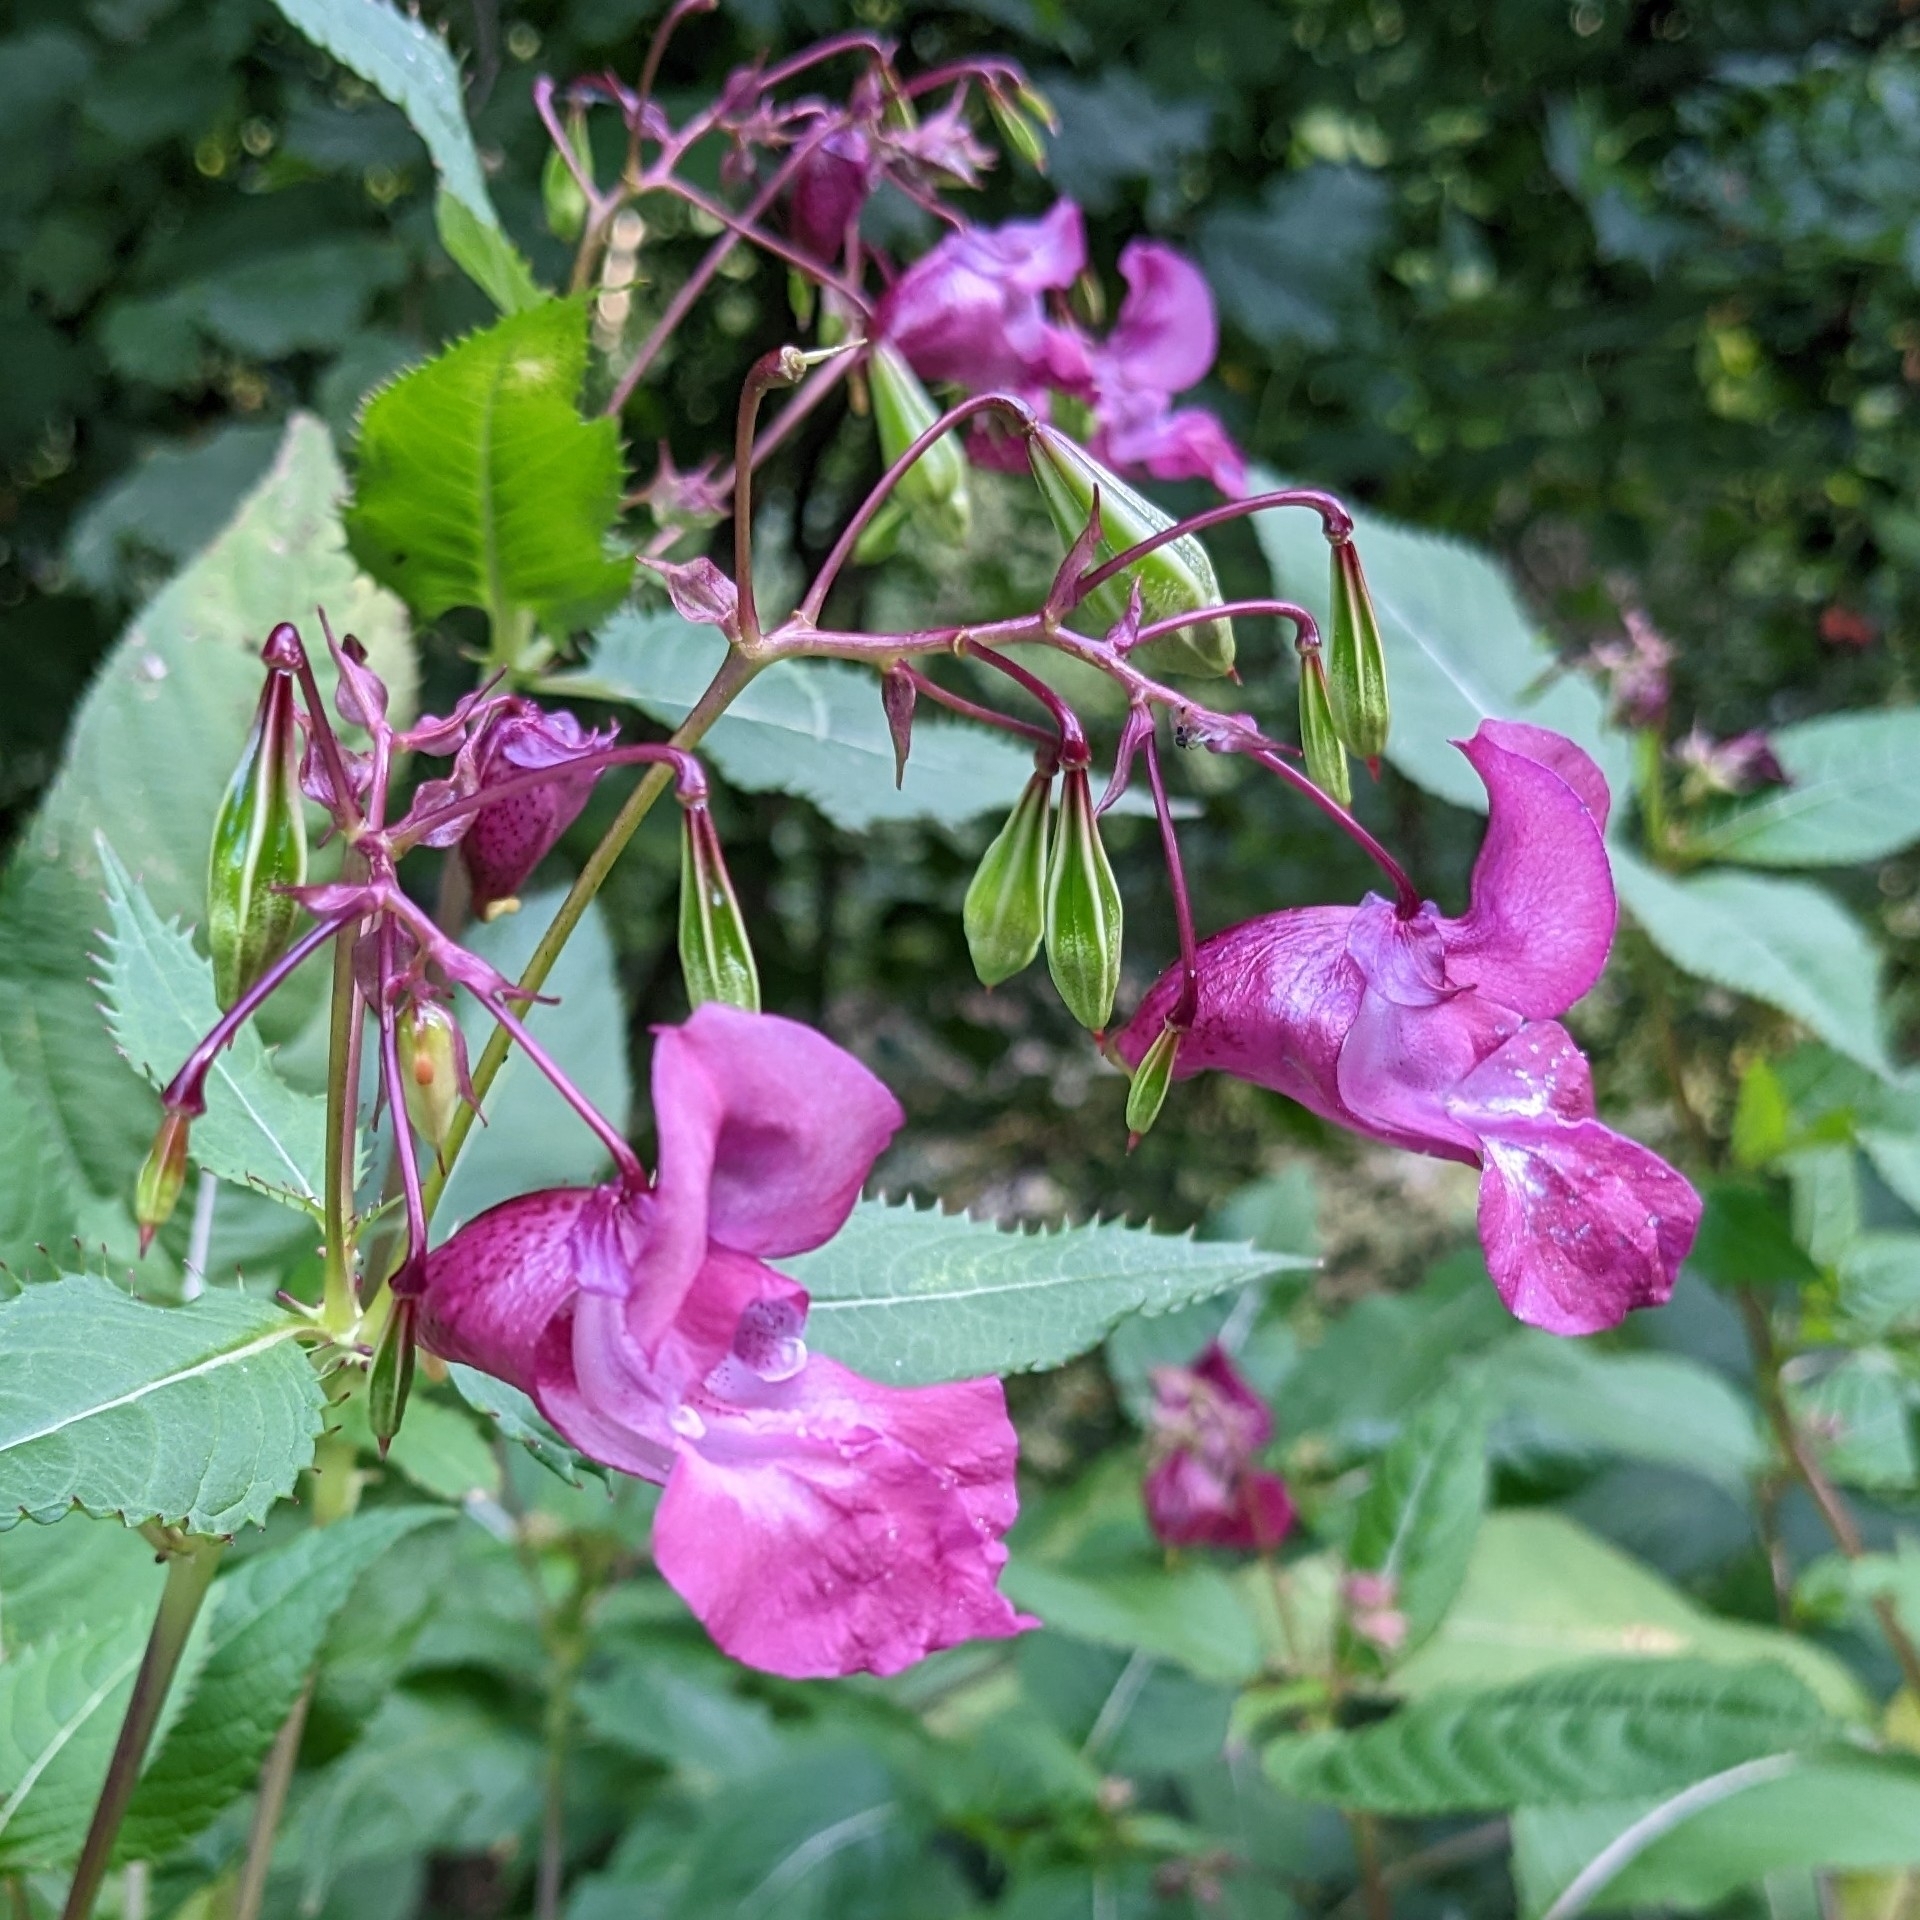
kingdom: Plantae
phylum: Tracheophyta
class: Magnoliopsida
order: Ericales
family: Balsaminaceae
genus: Impatiens
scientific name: Impatiens glandulifera
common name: Himalayan balsam
